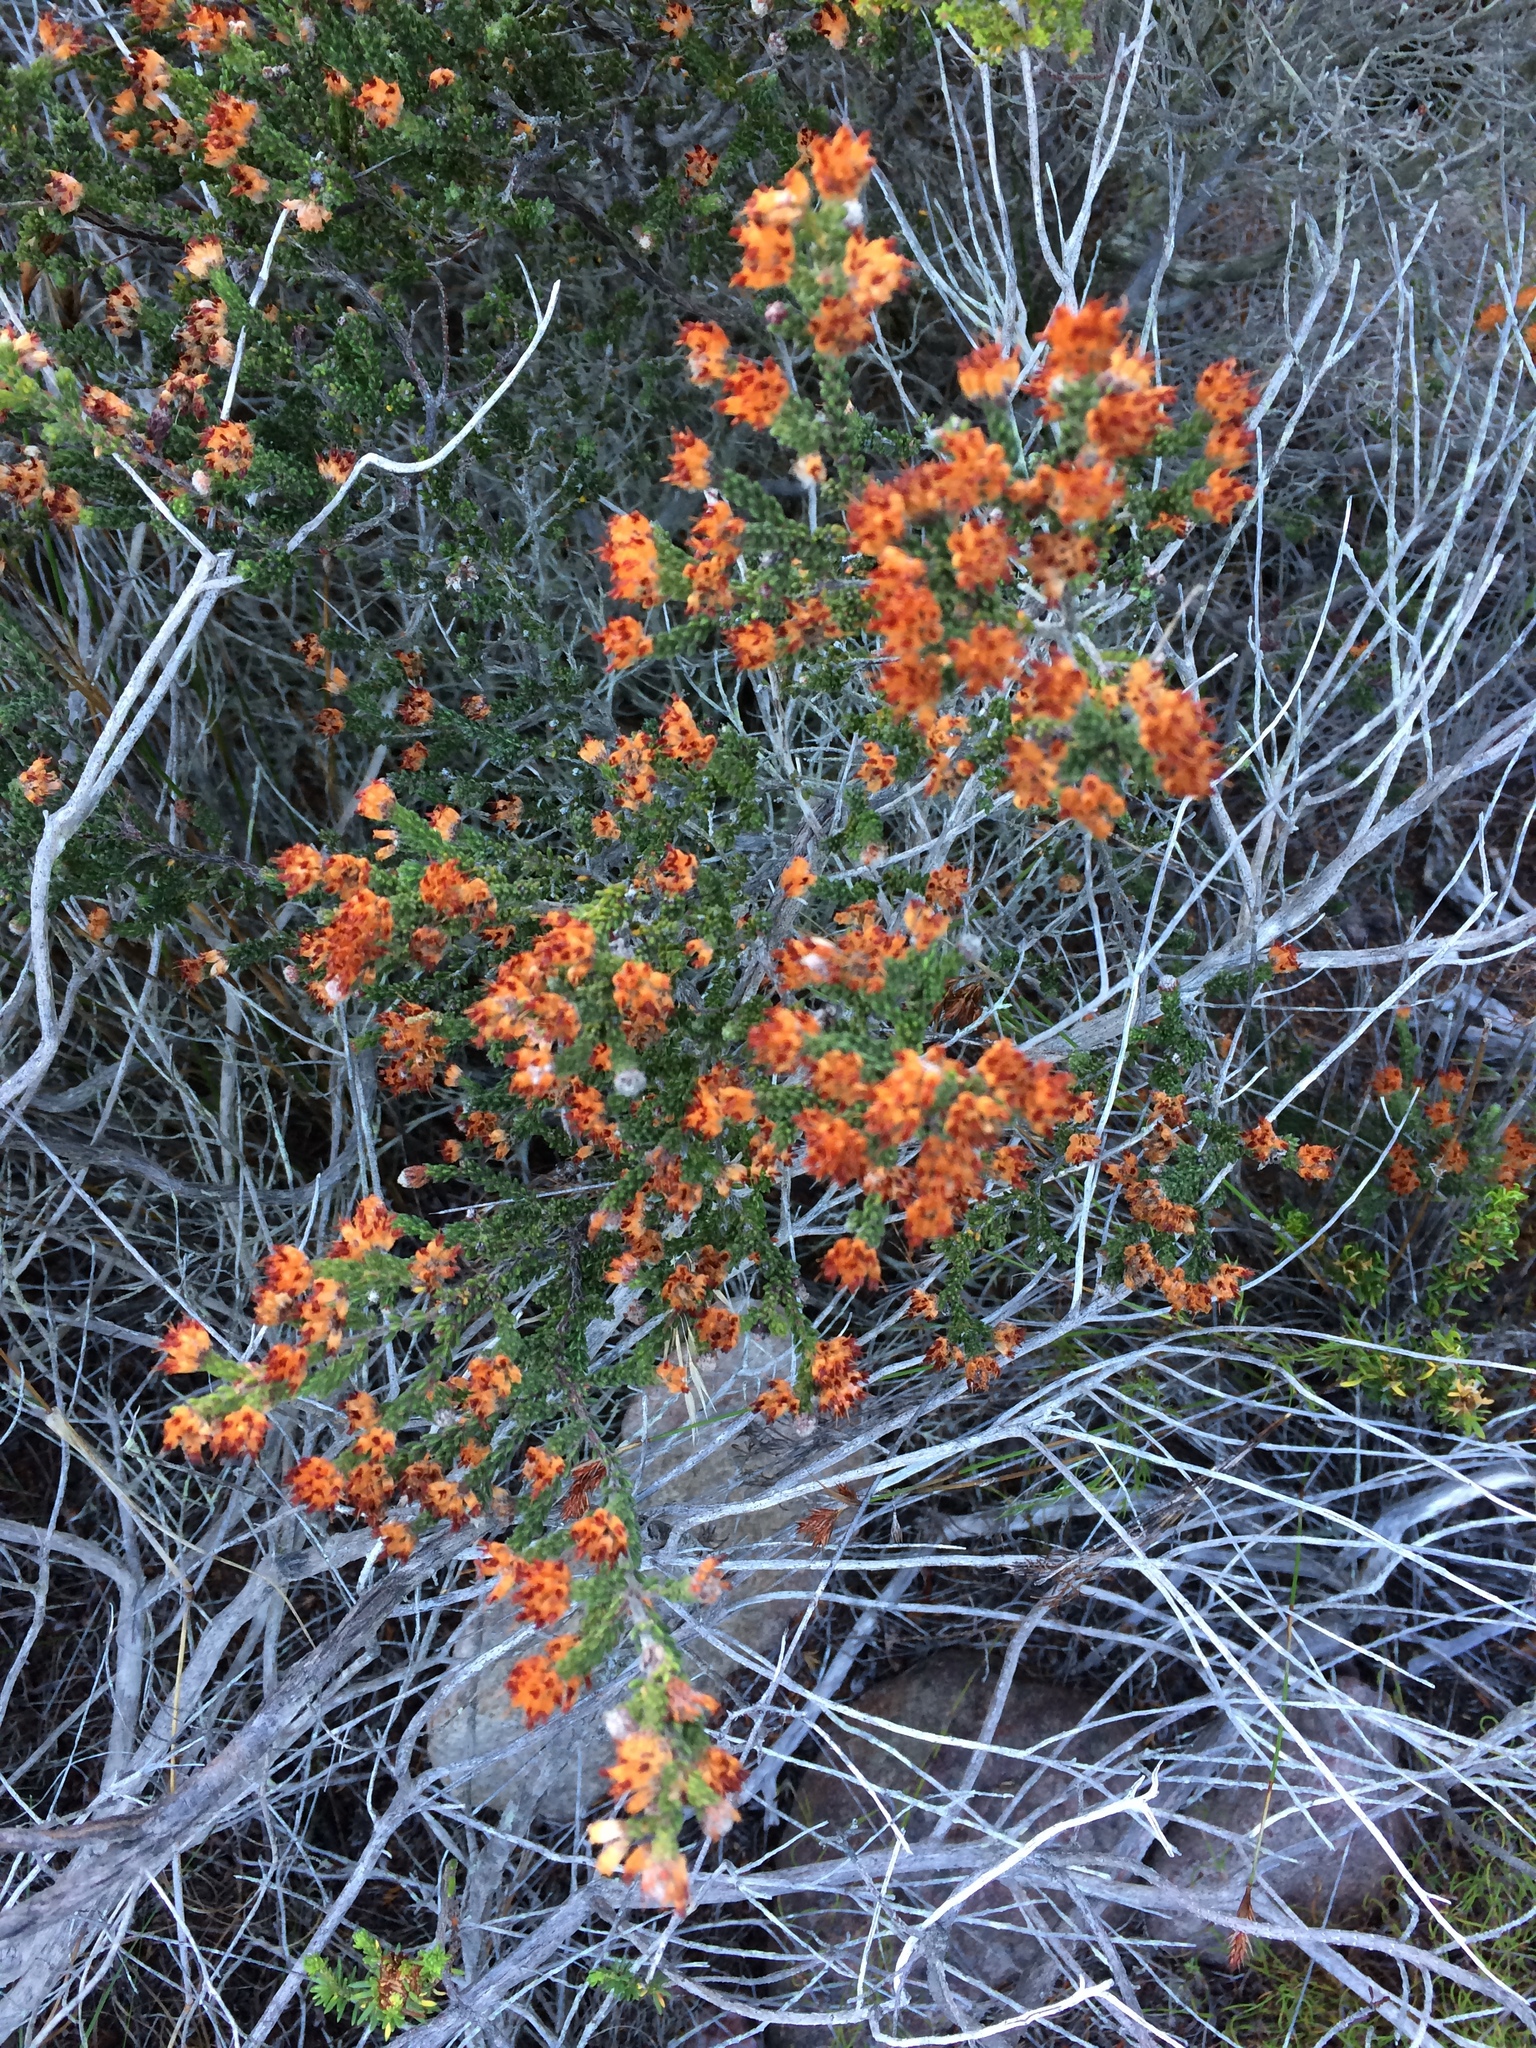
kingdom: Plantae
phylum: Tracheophyta
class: Magnoliopsida
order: Ericales
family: Ericaceae
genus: Erica
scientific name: Erica ericoides
